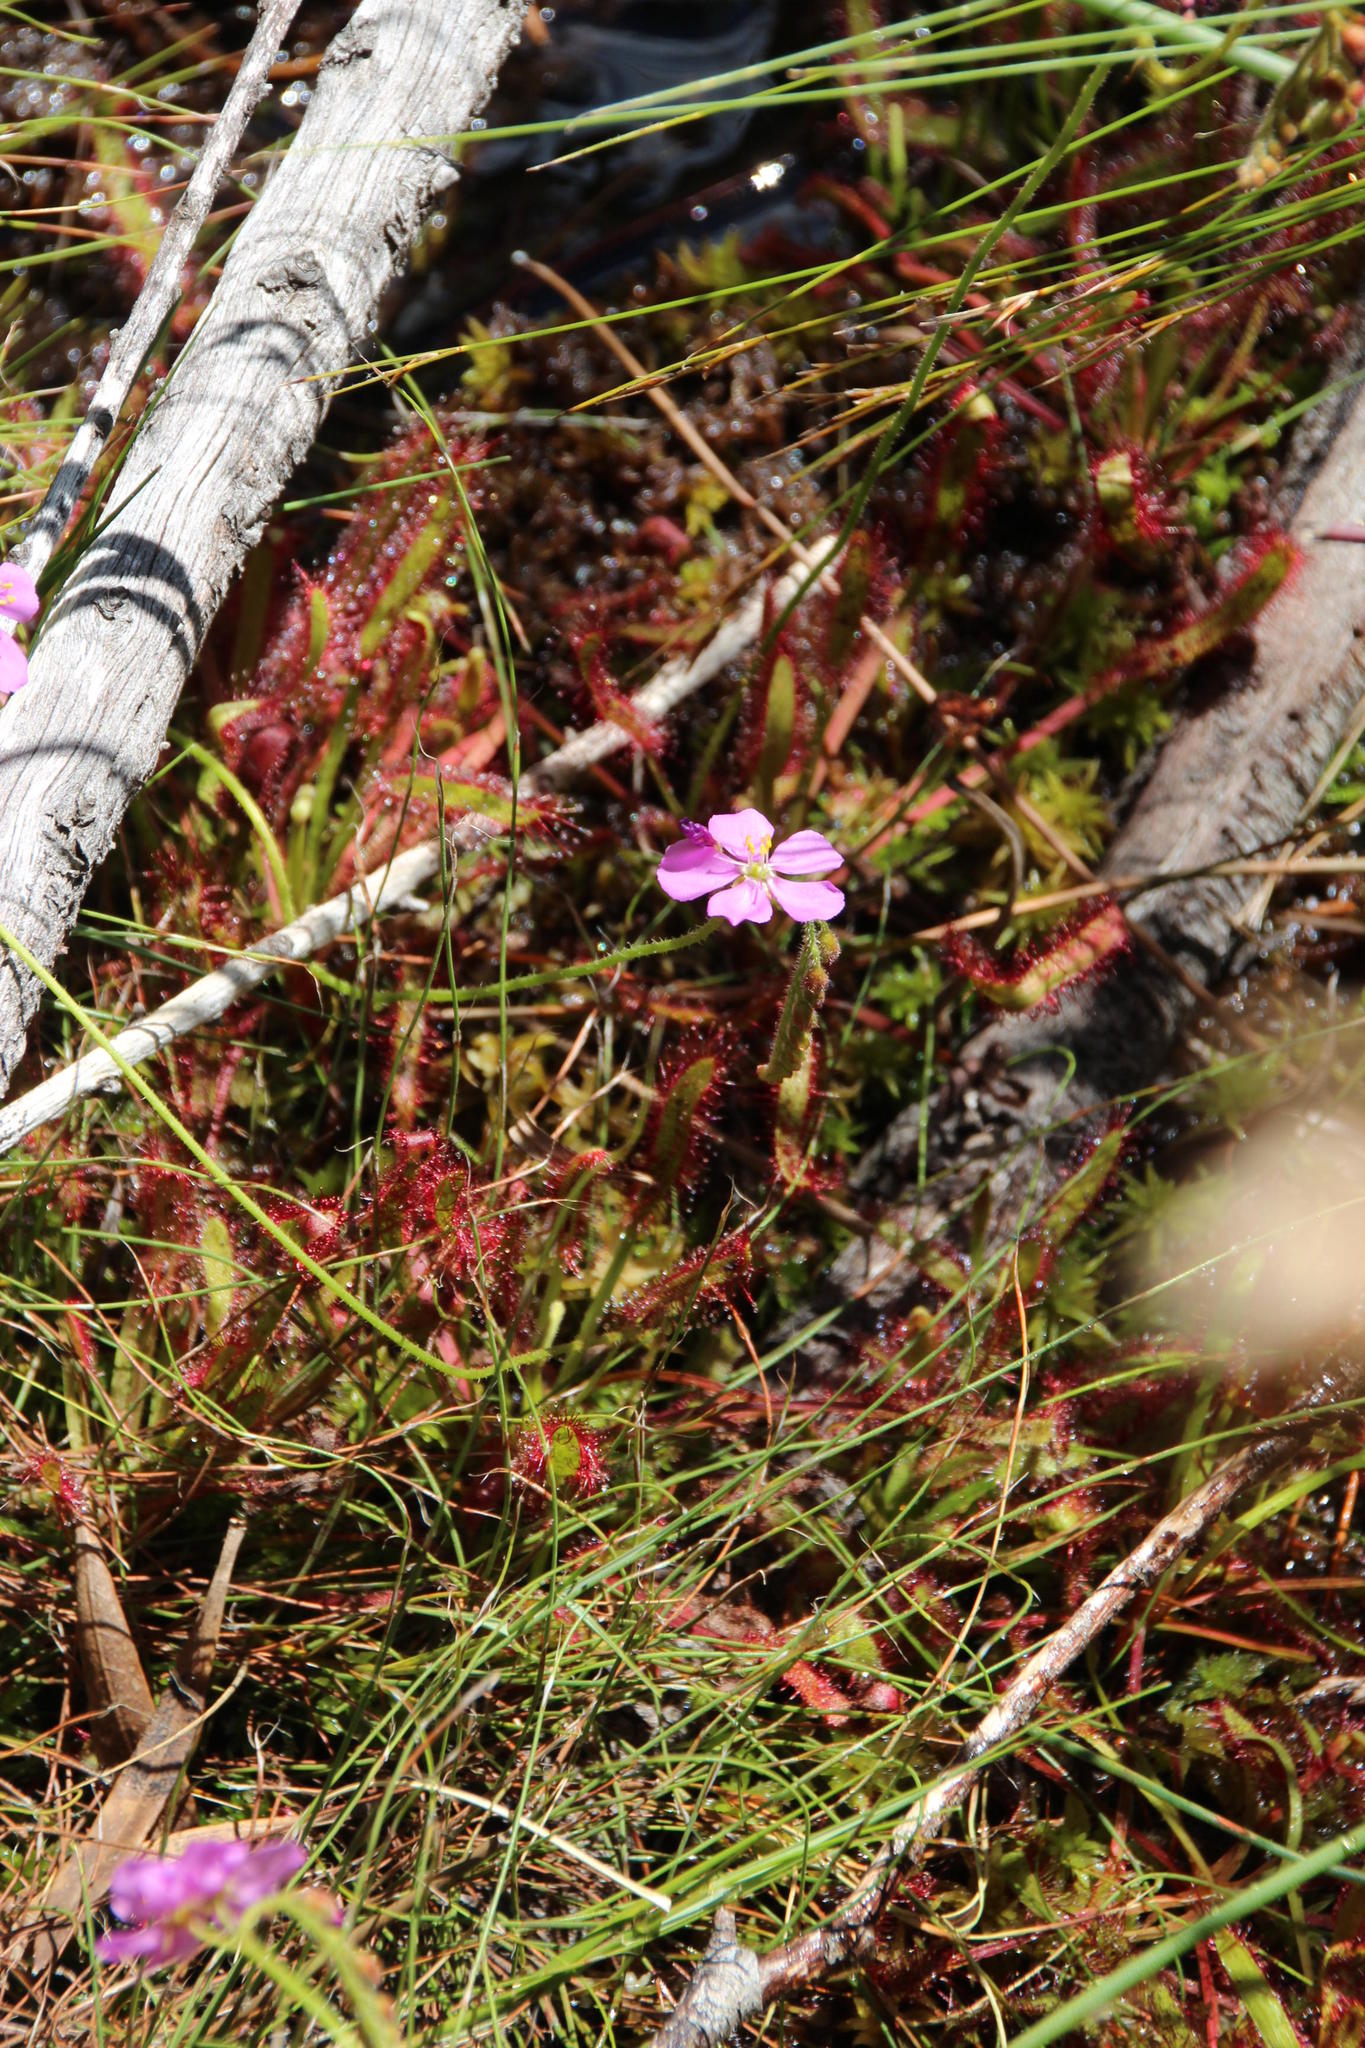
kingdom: Plantae
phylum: Tracheophyta
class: Magnoliopsida
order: Caryophyllales
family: Droseraceae
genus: Drosera
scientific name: Drosera capensis
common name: Cape sundew
